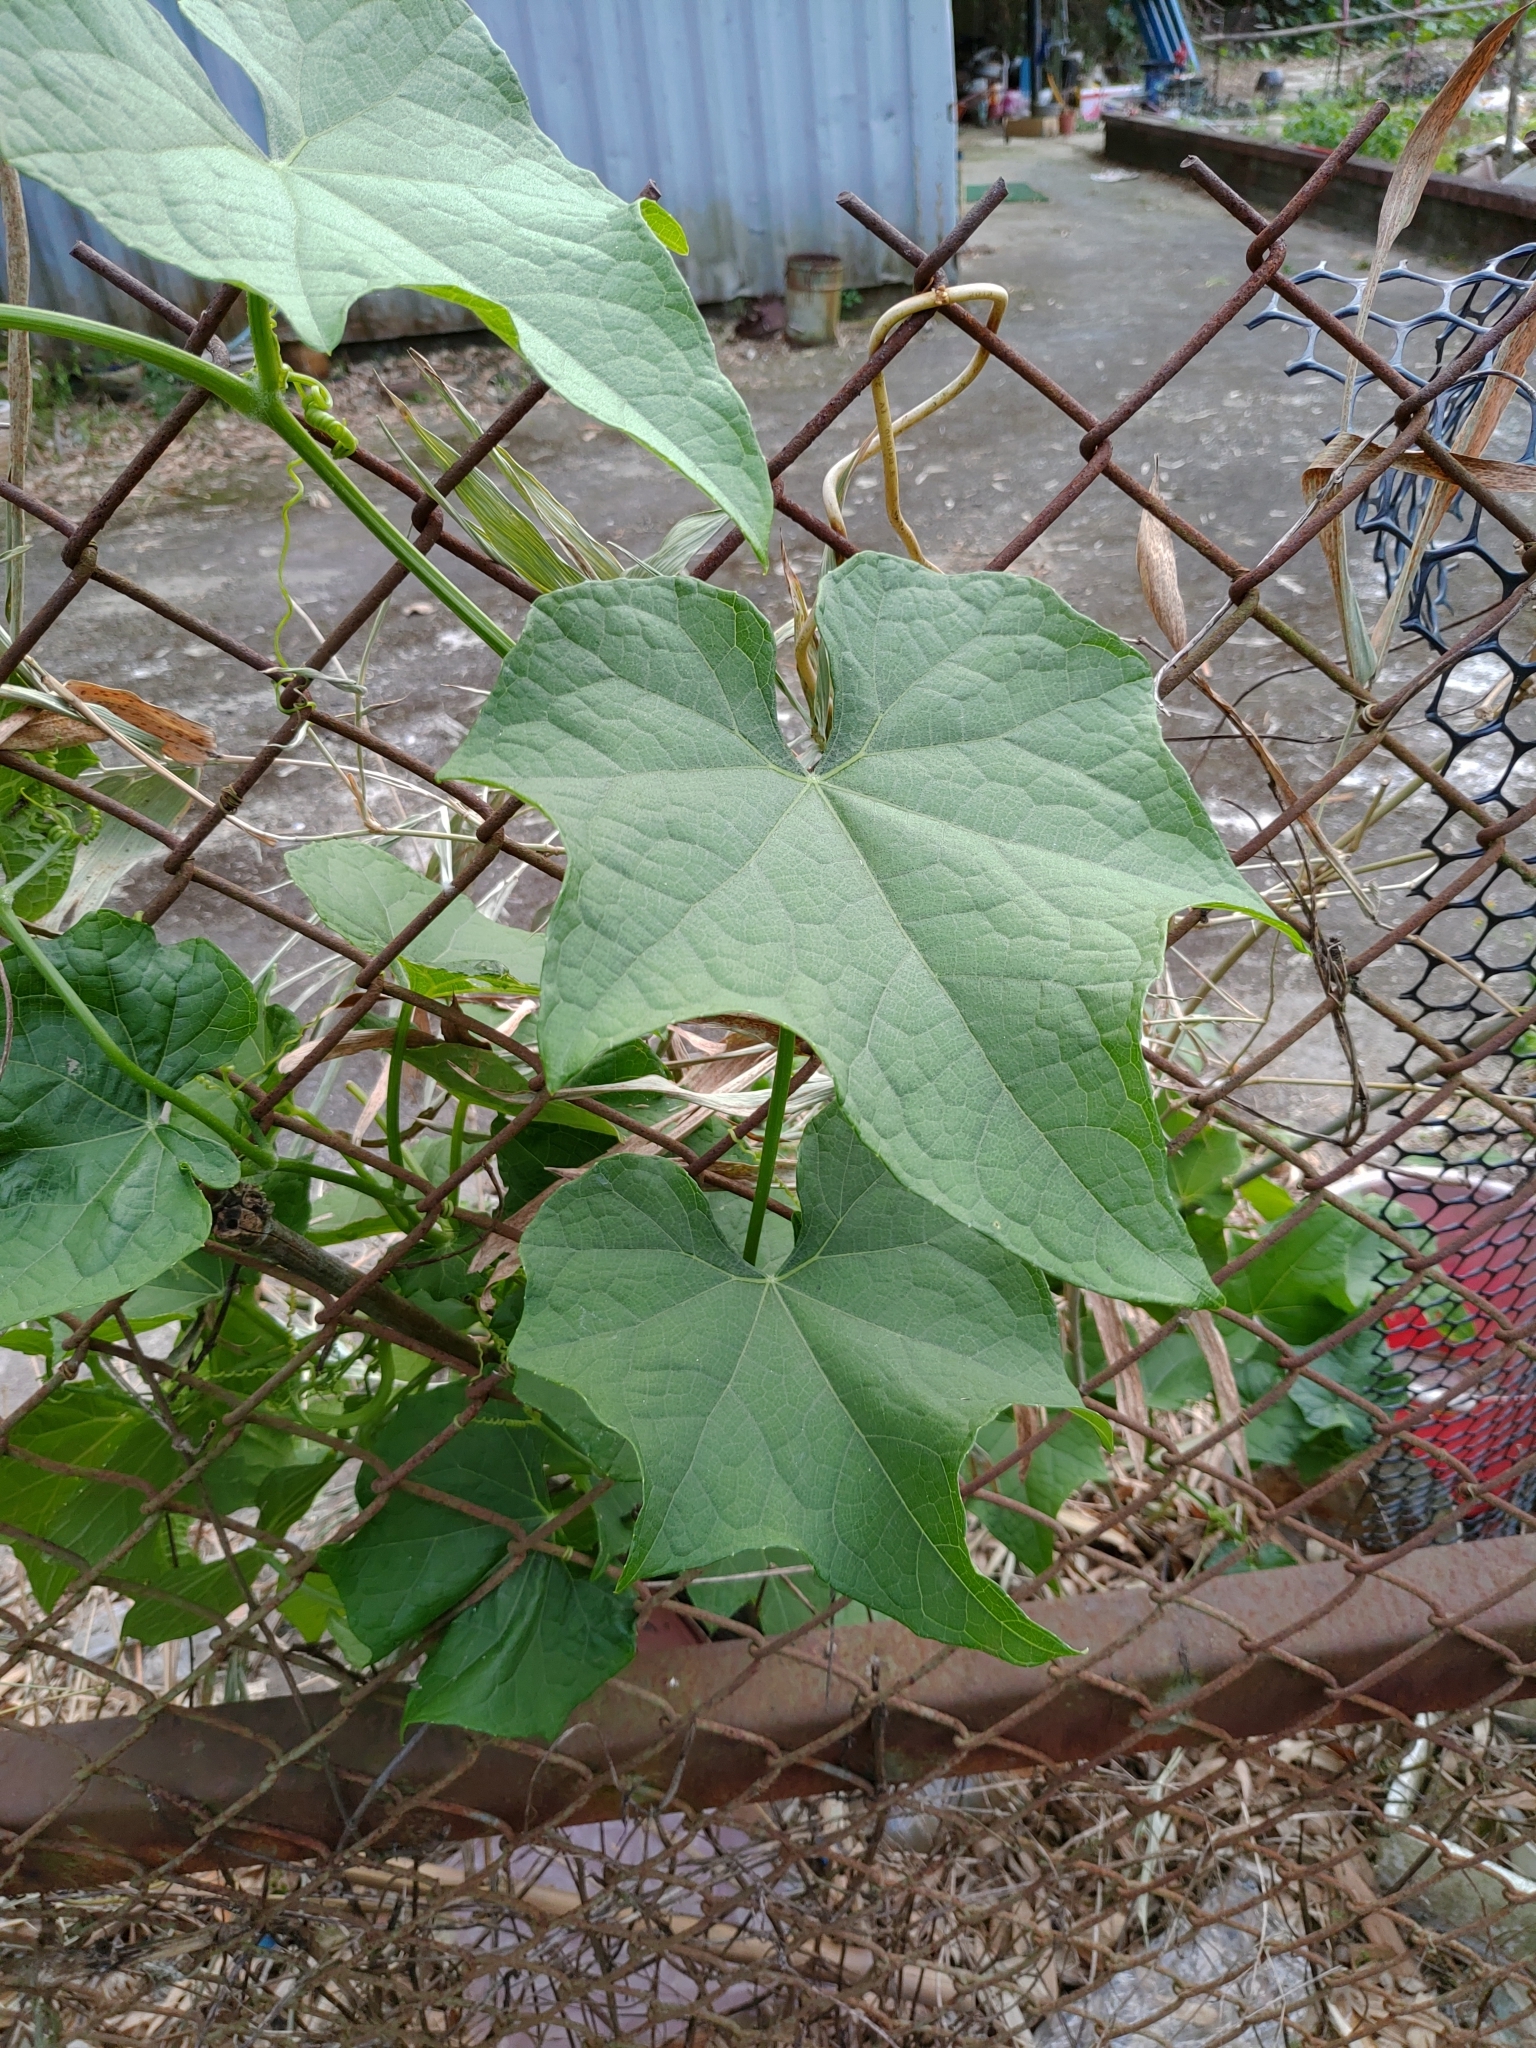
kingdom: Plantae
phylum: Tracheophyta
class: Magnoliopsida
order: Cucurbitales
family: Cucurbitaceae
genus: Sechium
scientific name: Sechium edule
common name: Chayote
